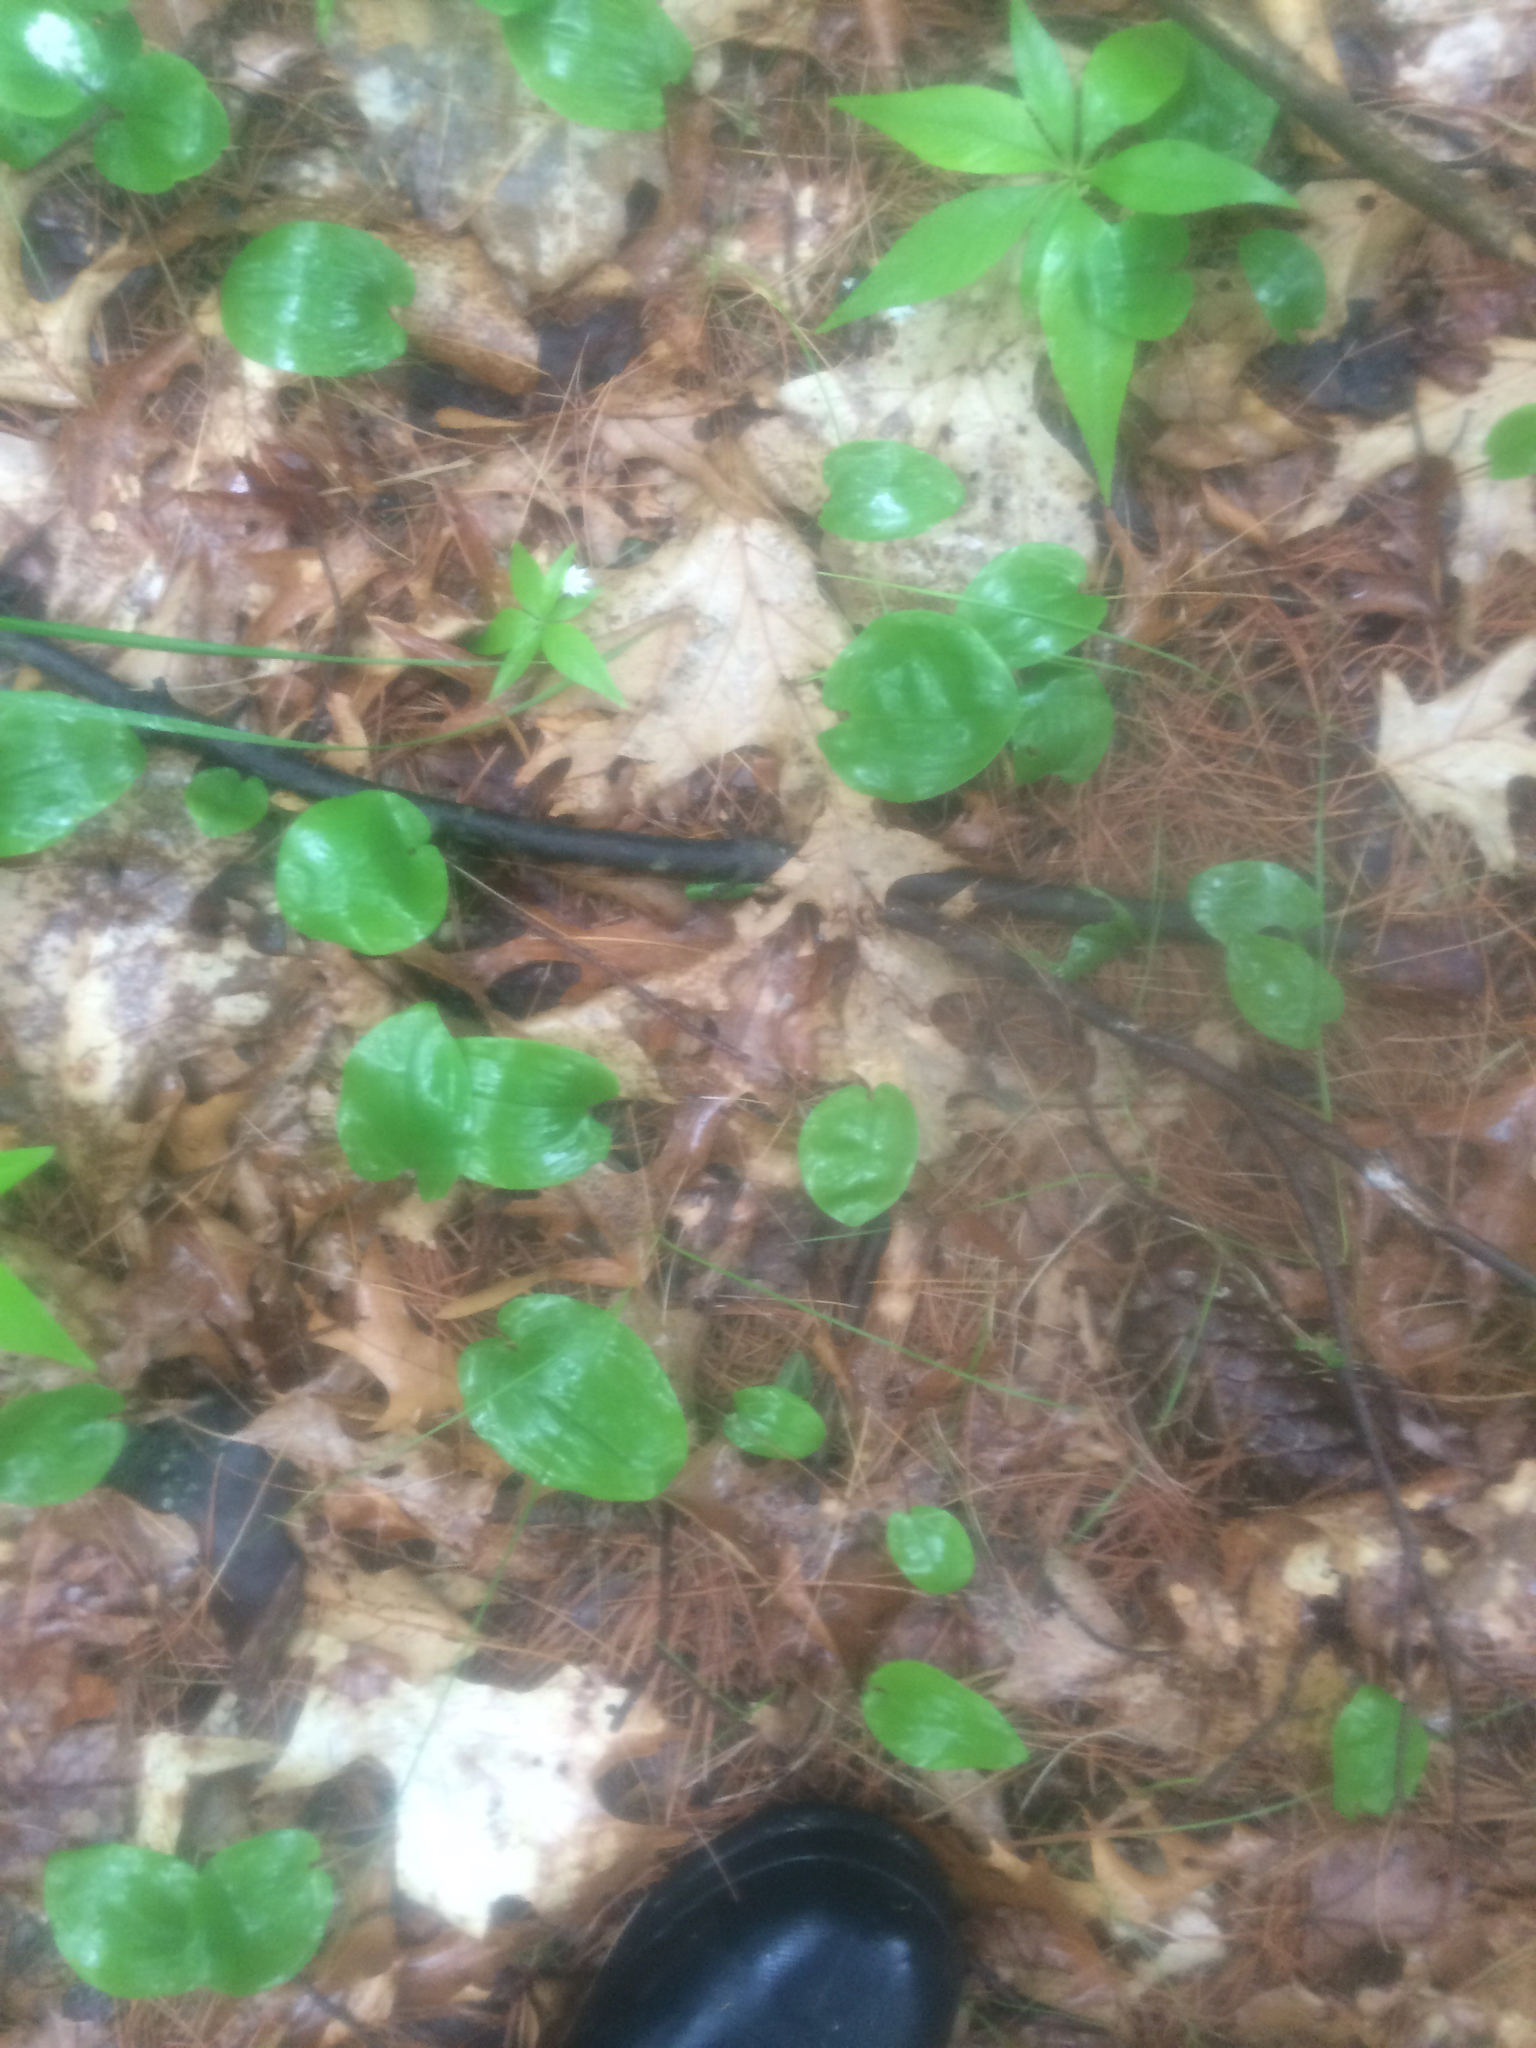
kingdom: Plantae
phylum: Tracheophyta
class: Liliopsida
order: Asparagales
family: Asparagaceae
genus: Maianthemum
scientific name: Maianthemum canadense
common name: False lily-of-the-valley
